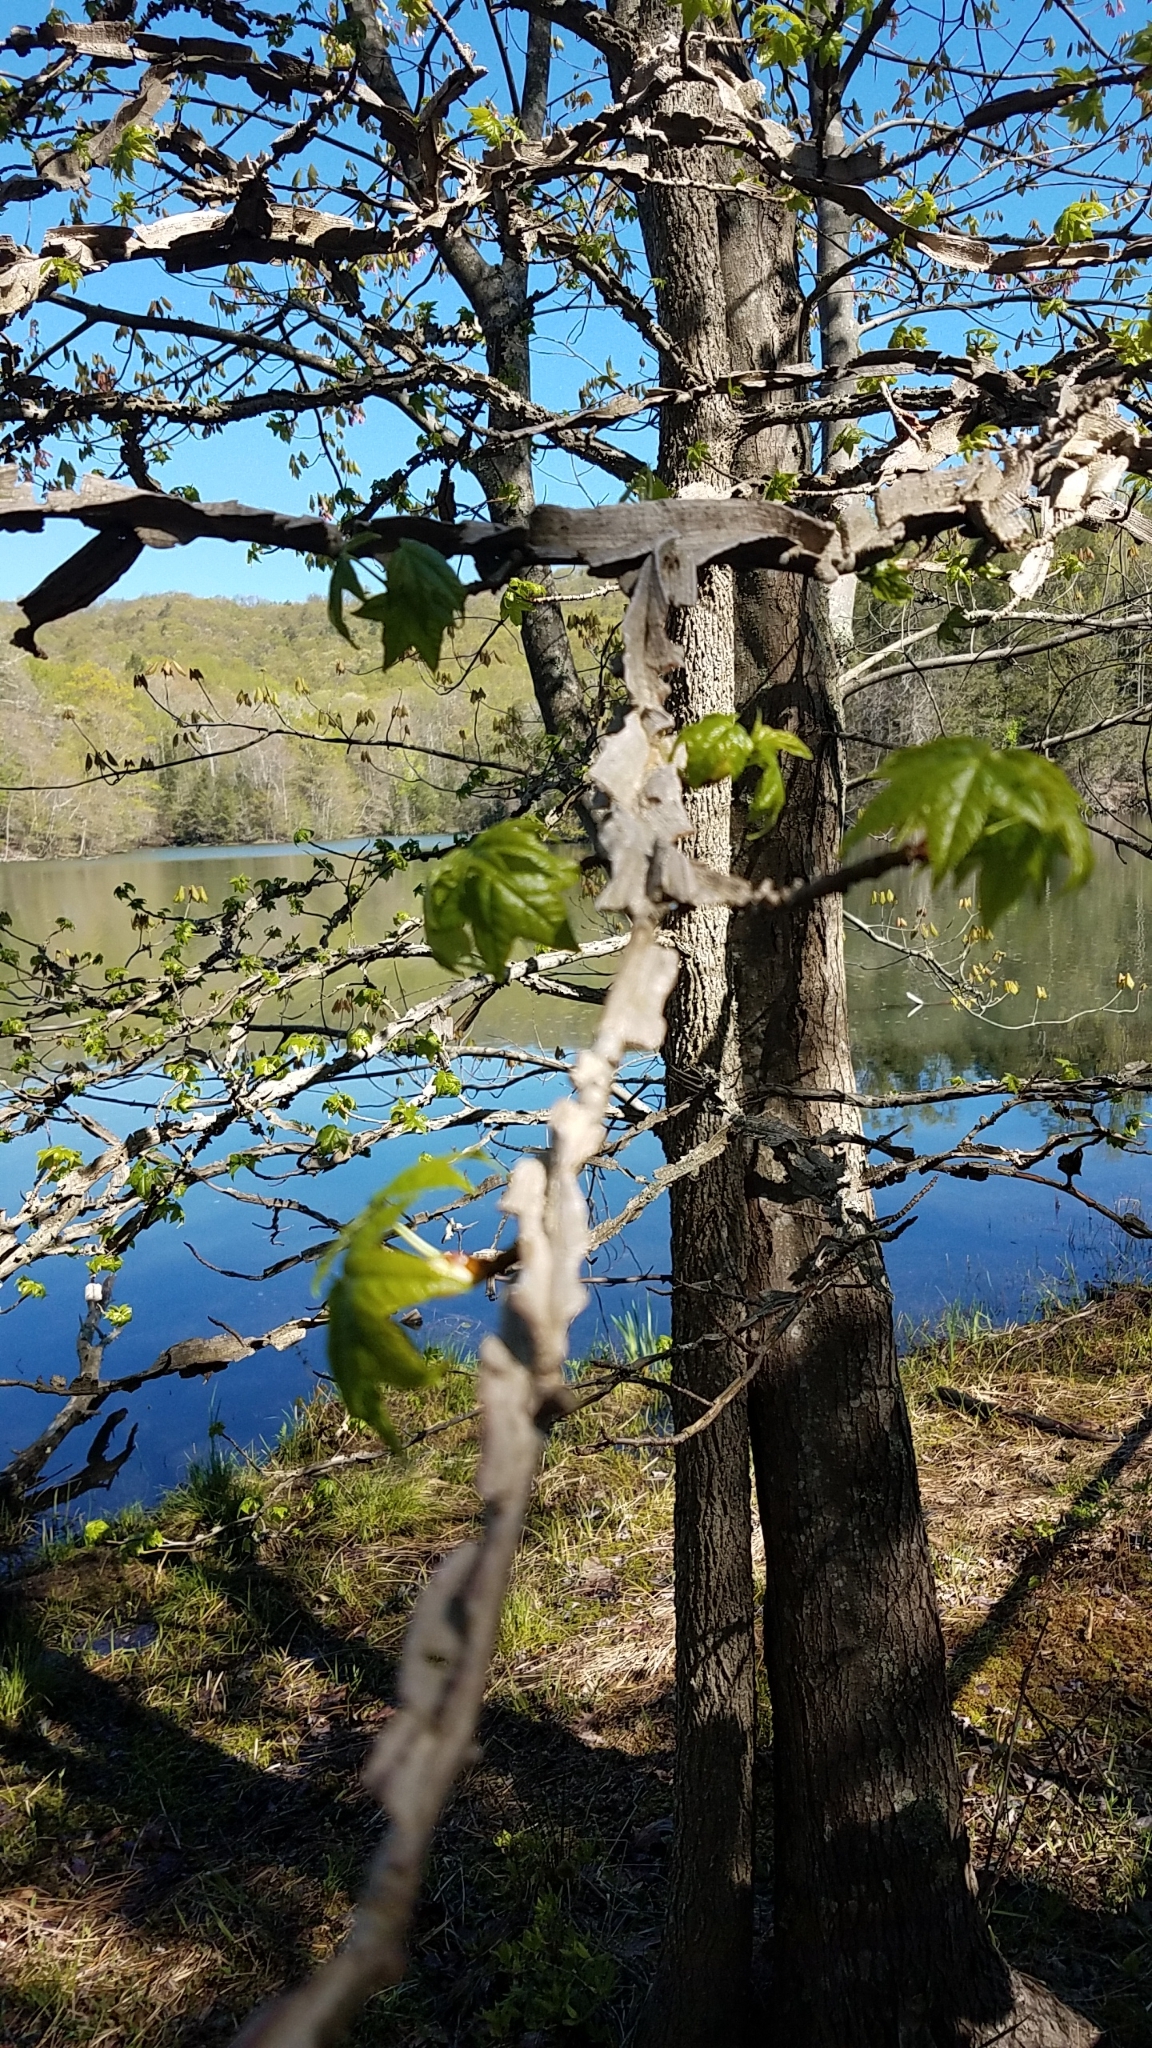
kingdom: Plantae
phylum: Tracheophyta
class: Magnoliopsida
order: Saxifragales
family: Altingiaceae
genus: Liquidambar
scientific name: Liquidambar styraciflua
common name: Sweet gum
